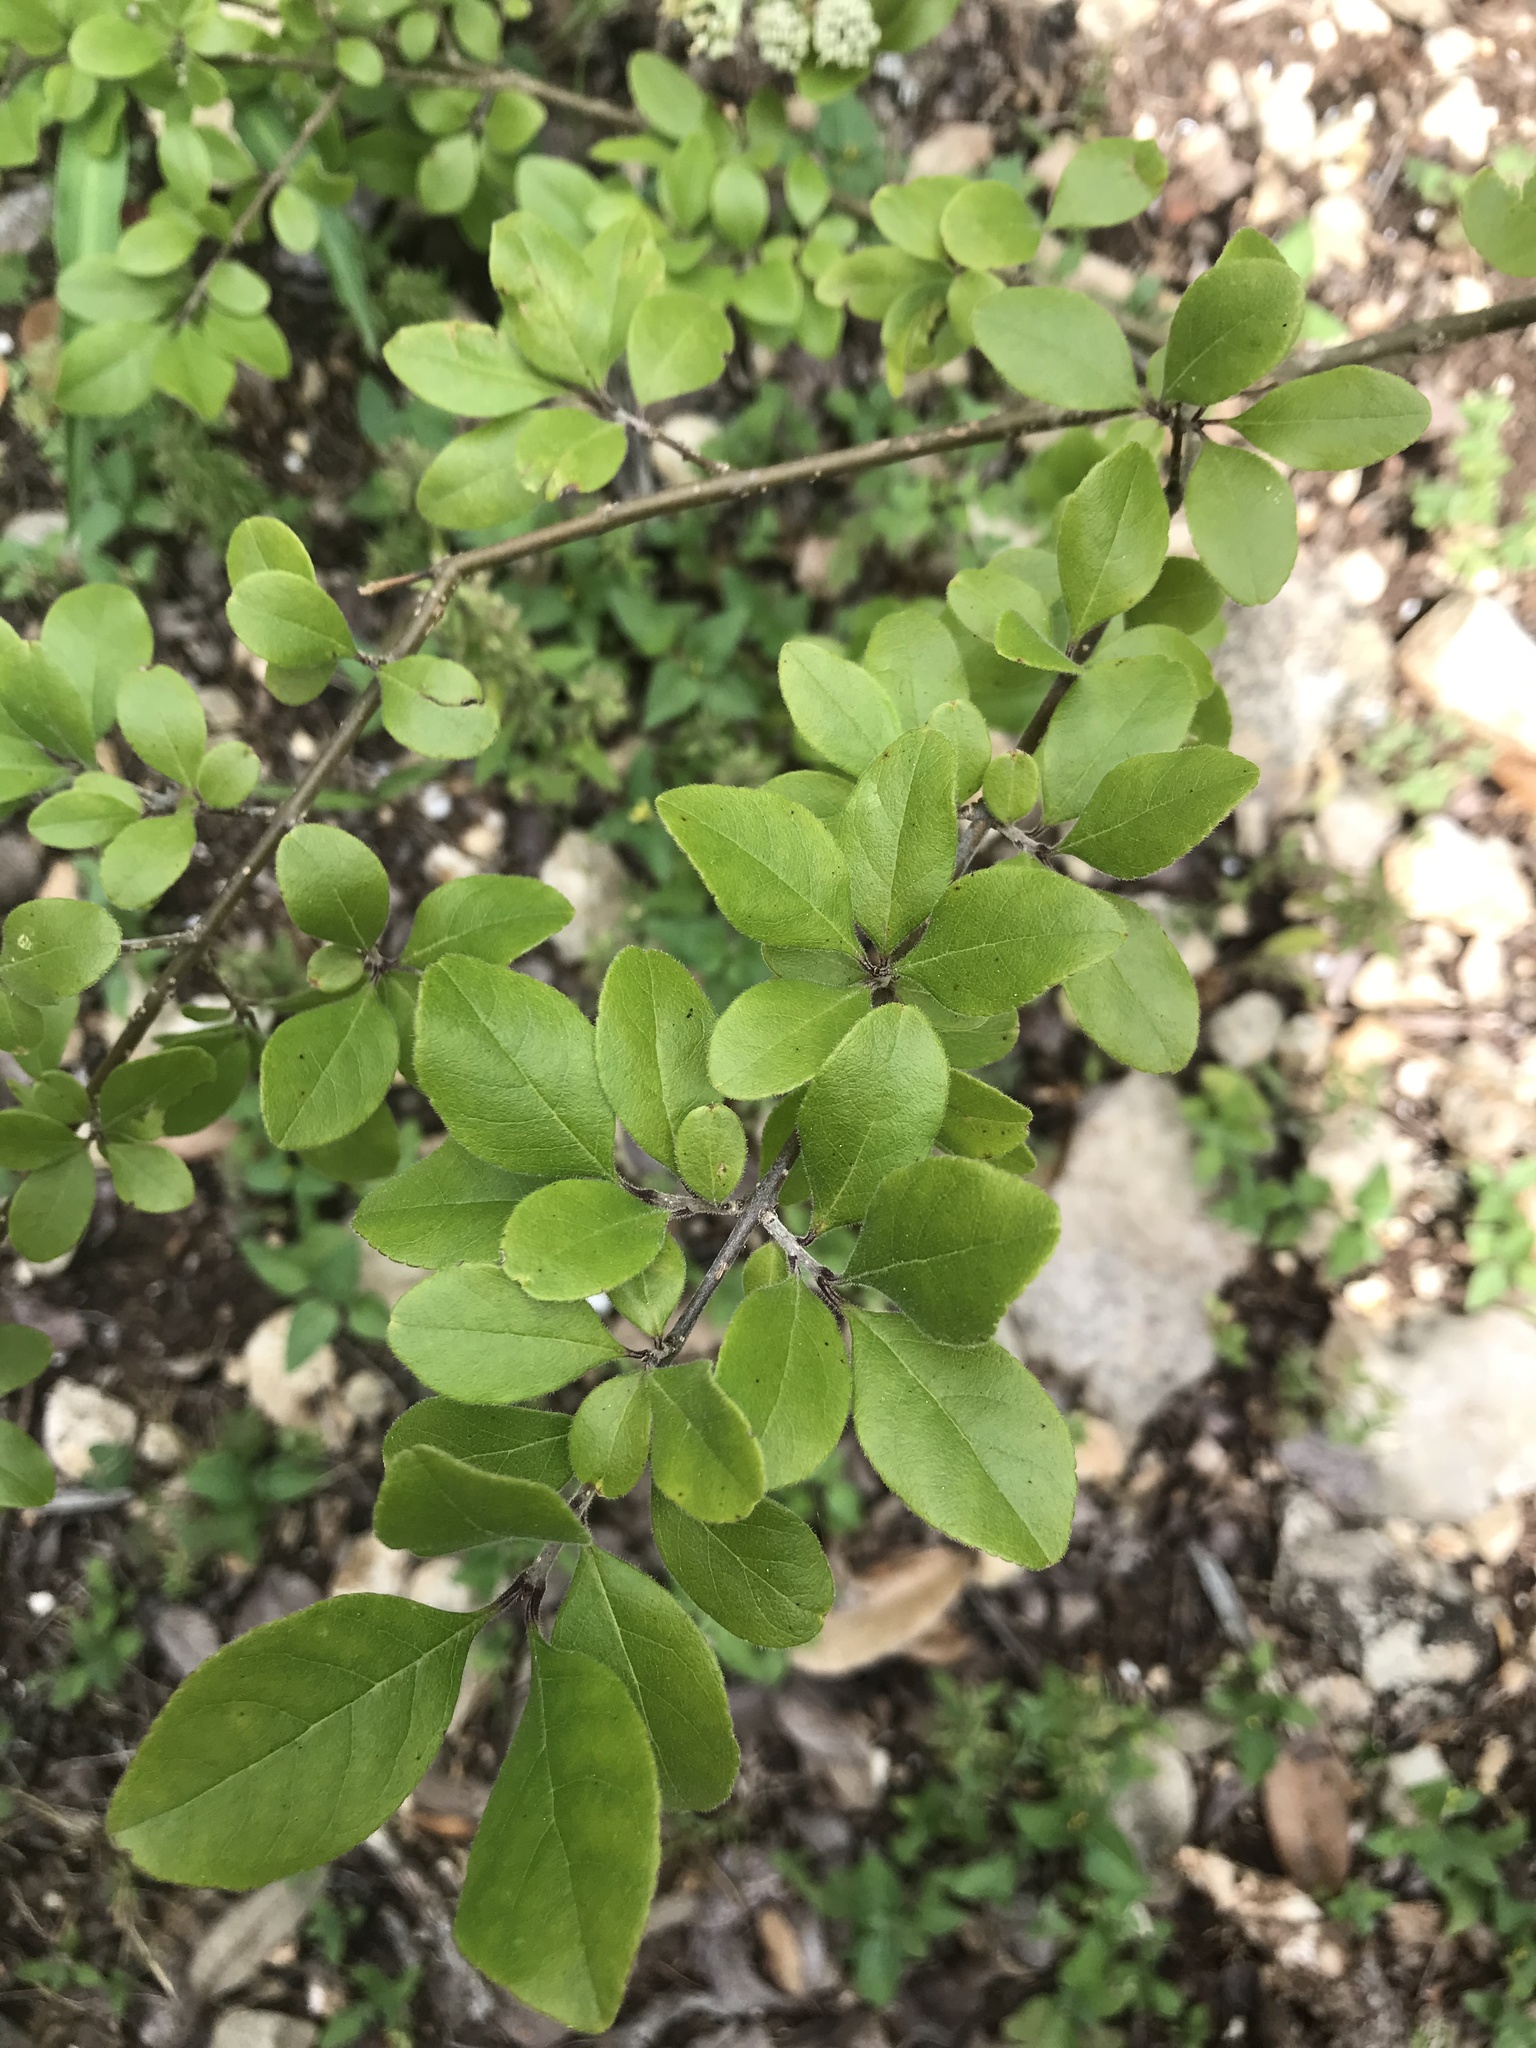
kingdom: Plantae
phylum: Tracheophyta
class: Magnoliopsida
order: Lamiales
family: Oleaceae
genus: Forestiera
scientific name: Forestiera pubescens
